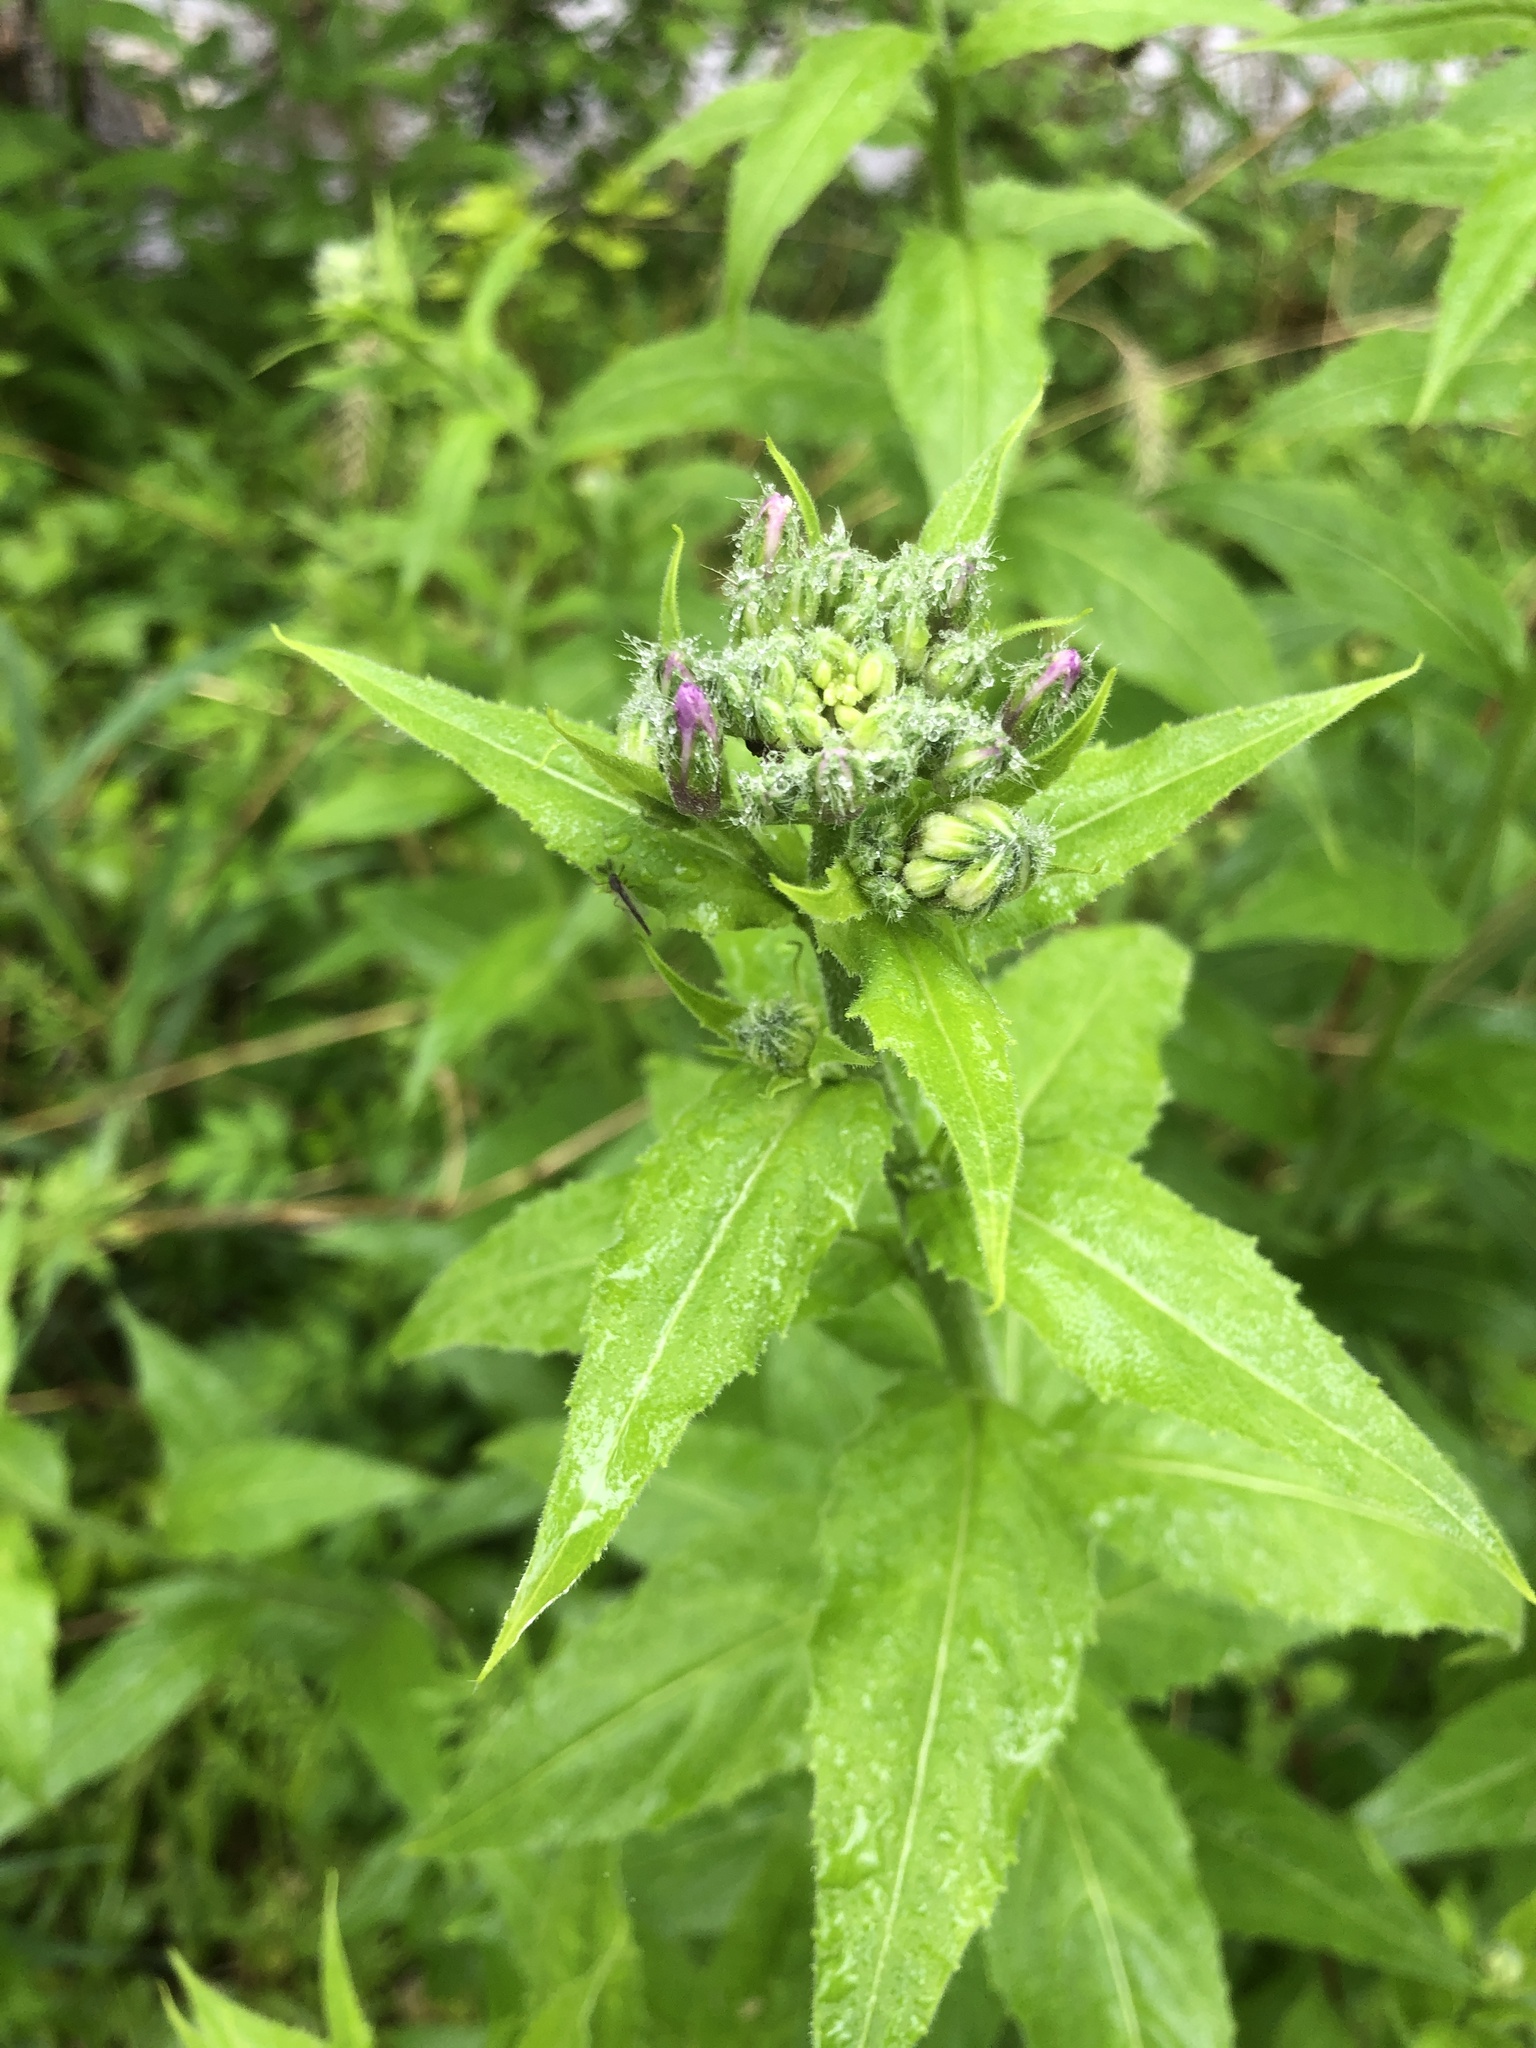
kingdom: Plantae
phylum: Tracheophyta
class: Magnoliopsida
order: Brassicales
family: Brassicaceae
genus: Hesperis
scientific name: Hesperis matronalis
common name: Dame's-violet
